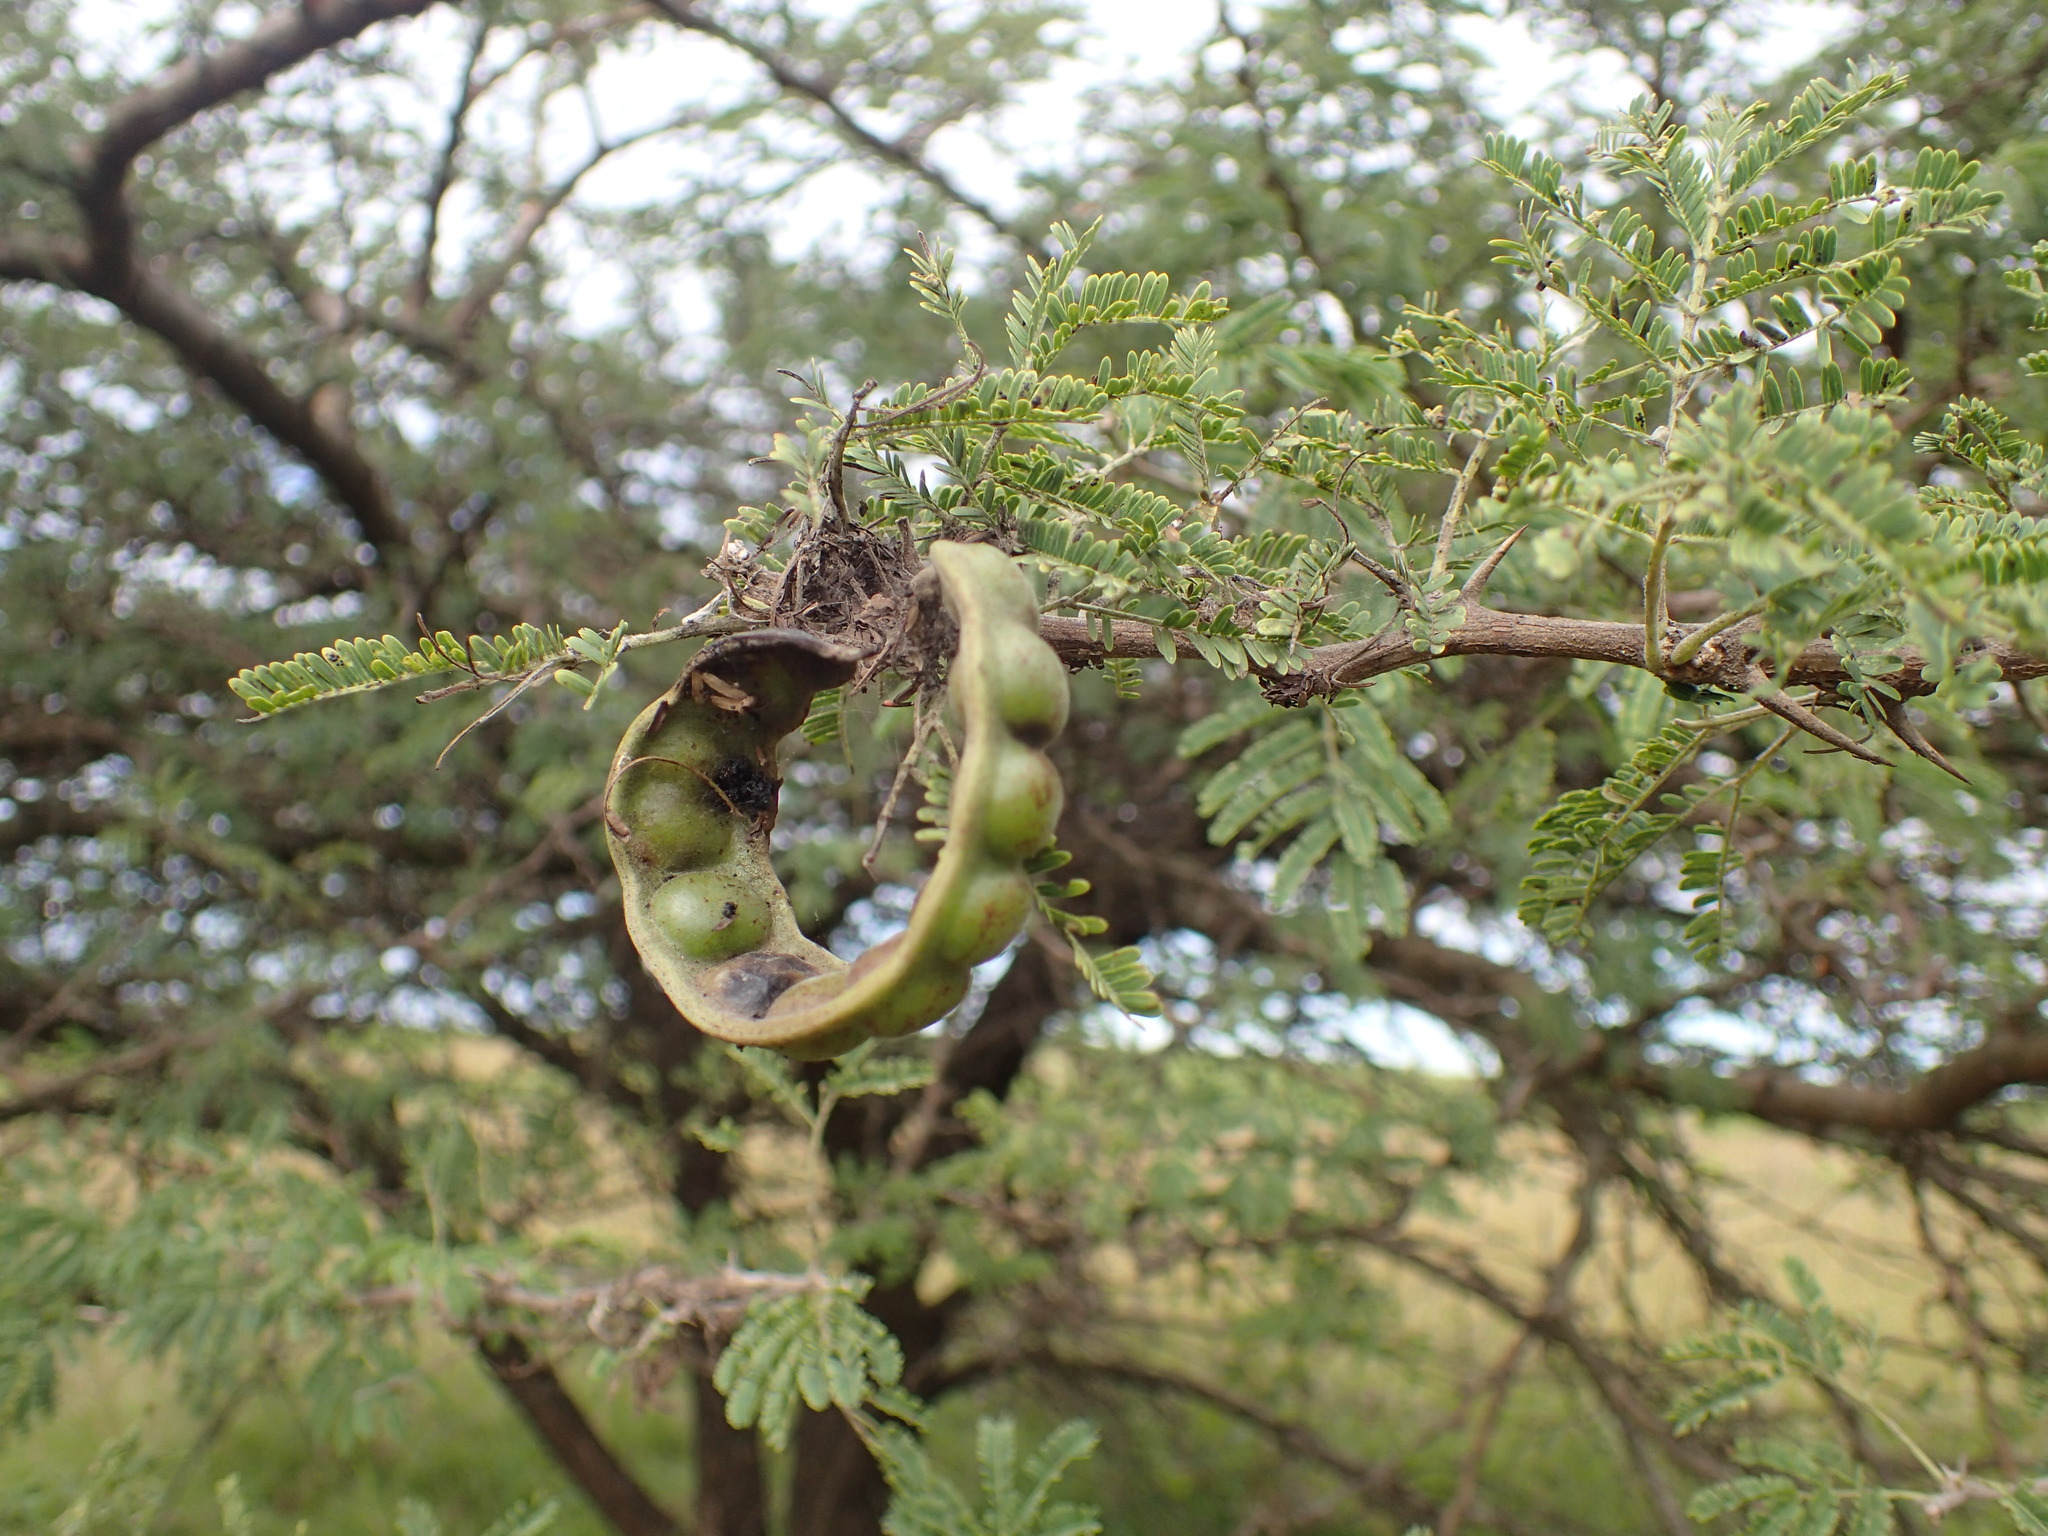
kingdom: Plantae
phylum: Tracheophyta
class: Magnoliopsida
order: Fabales
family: Fabaceae
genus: Vachellia
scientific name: Vachellia nilotica
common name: Arabic gumtree
